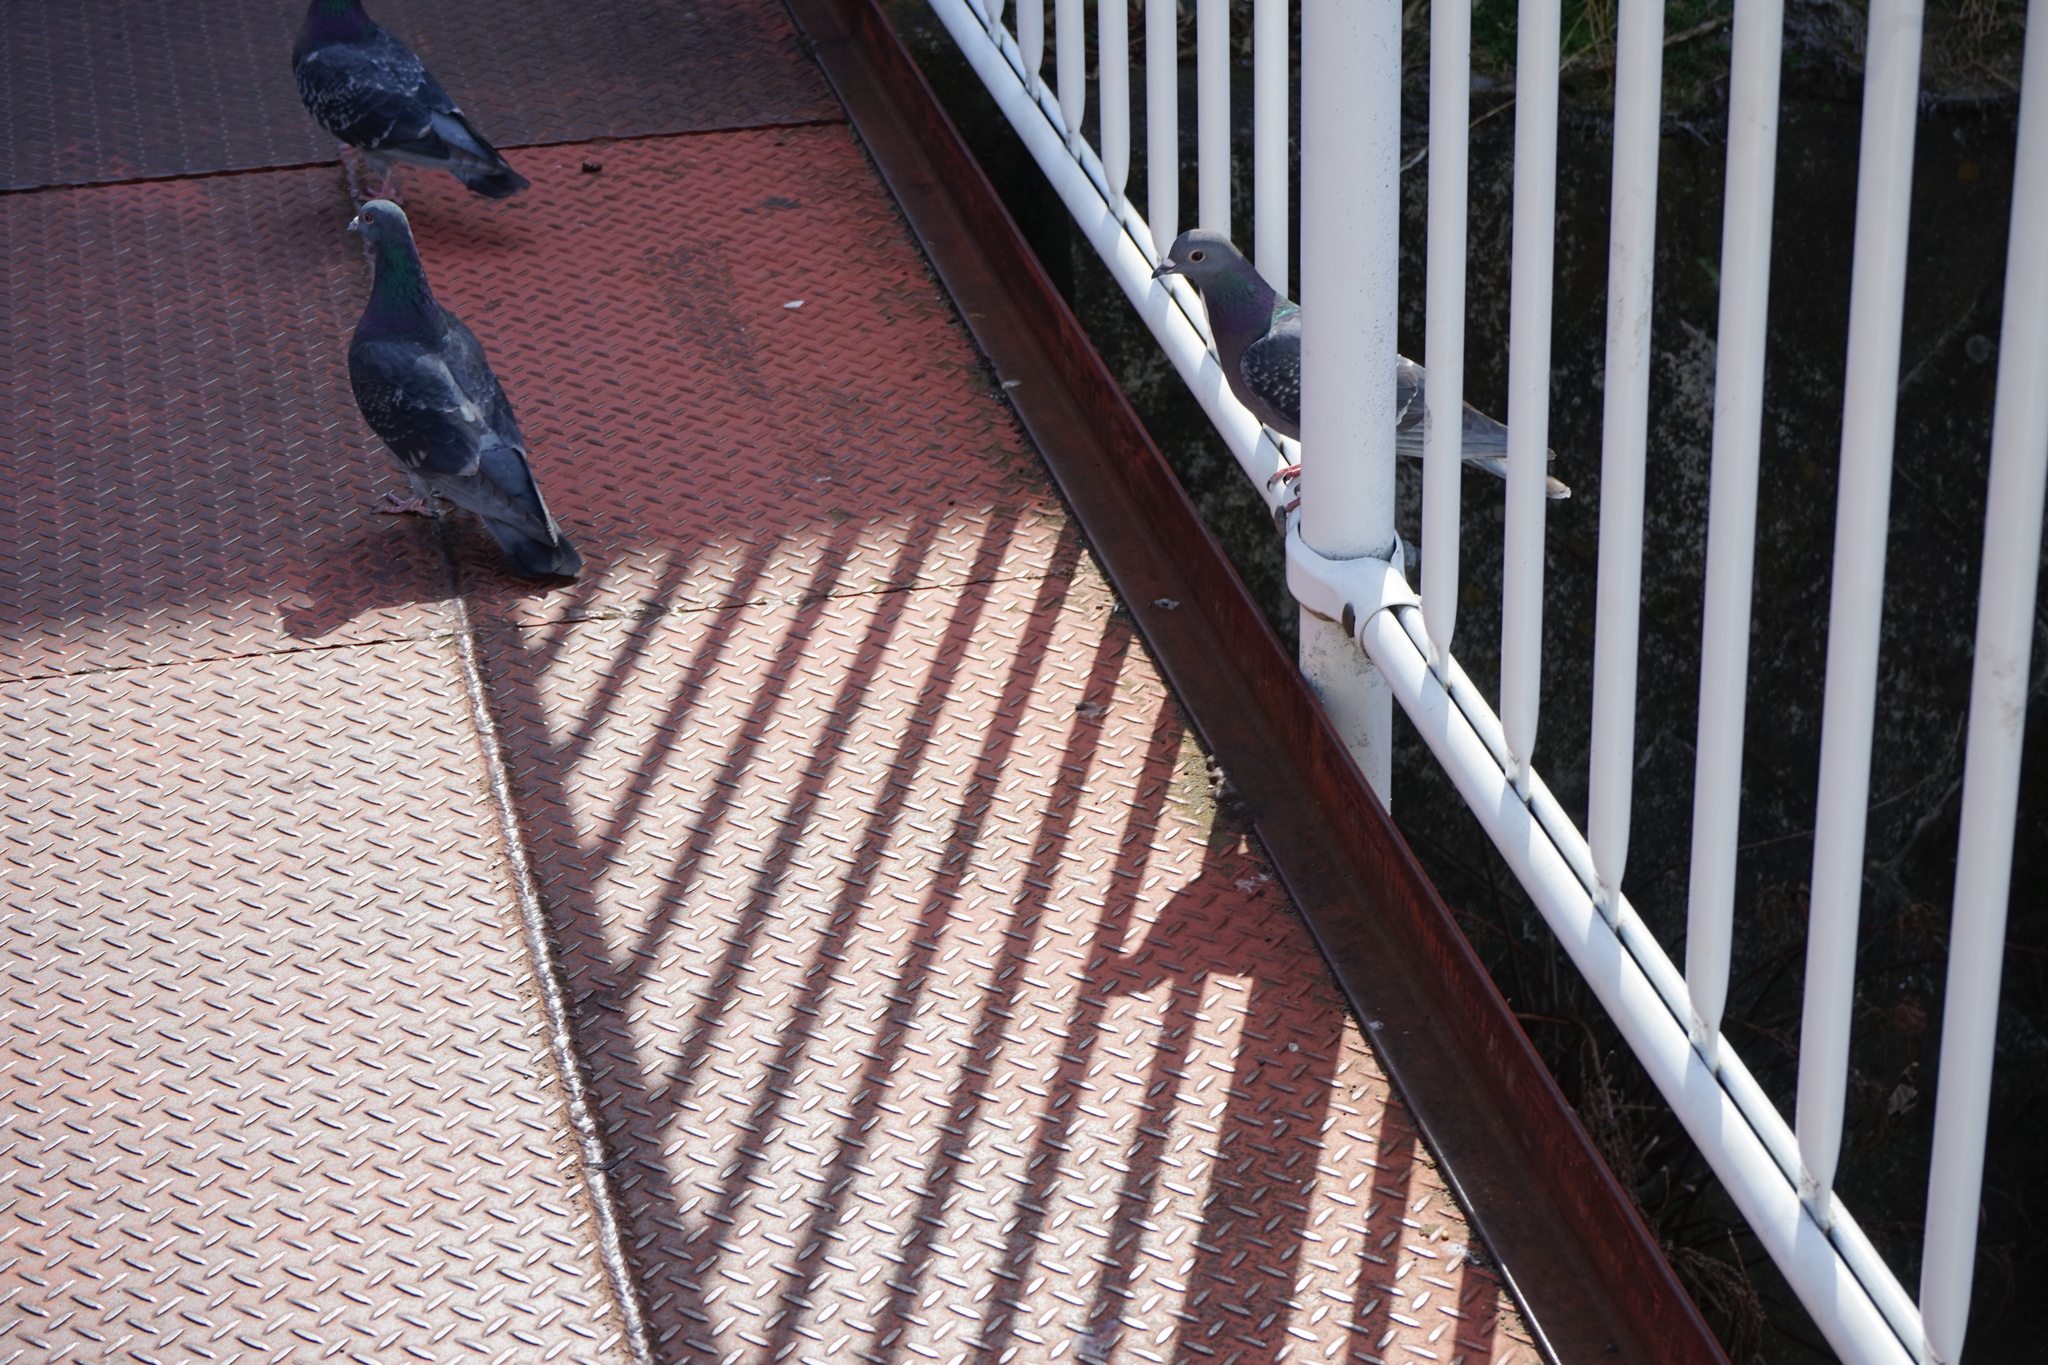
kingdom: Animalia
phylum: Chordata
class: Aves
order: Columbiformes
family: Columbidae
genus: Columba
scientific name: Columba livia
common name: Rock pigeon
